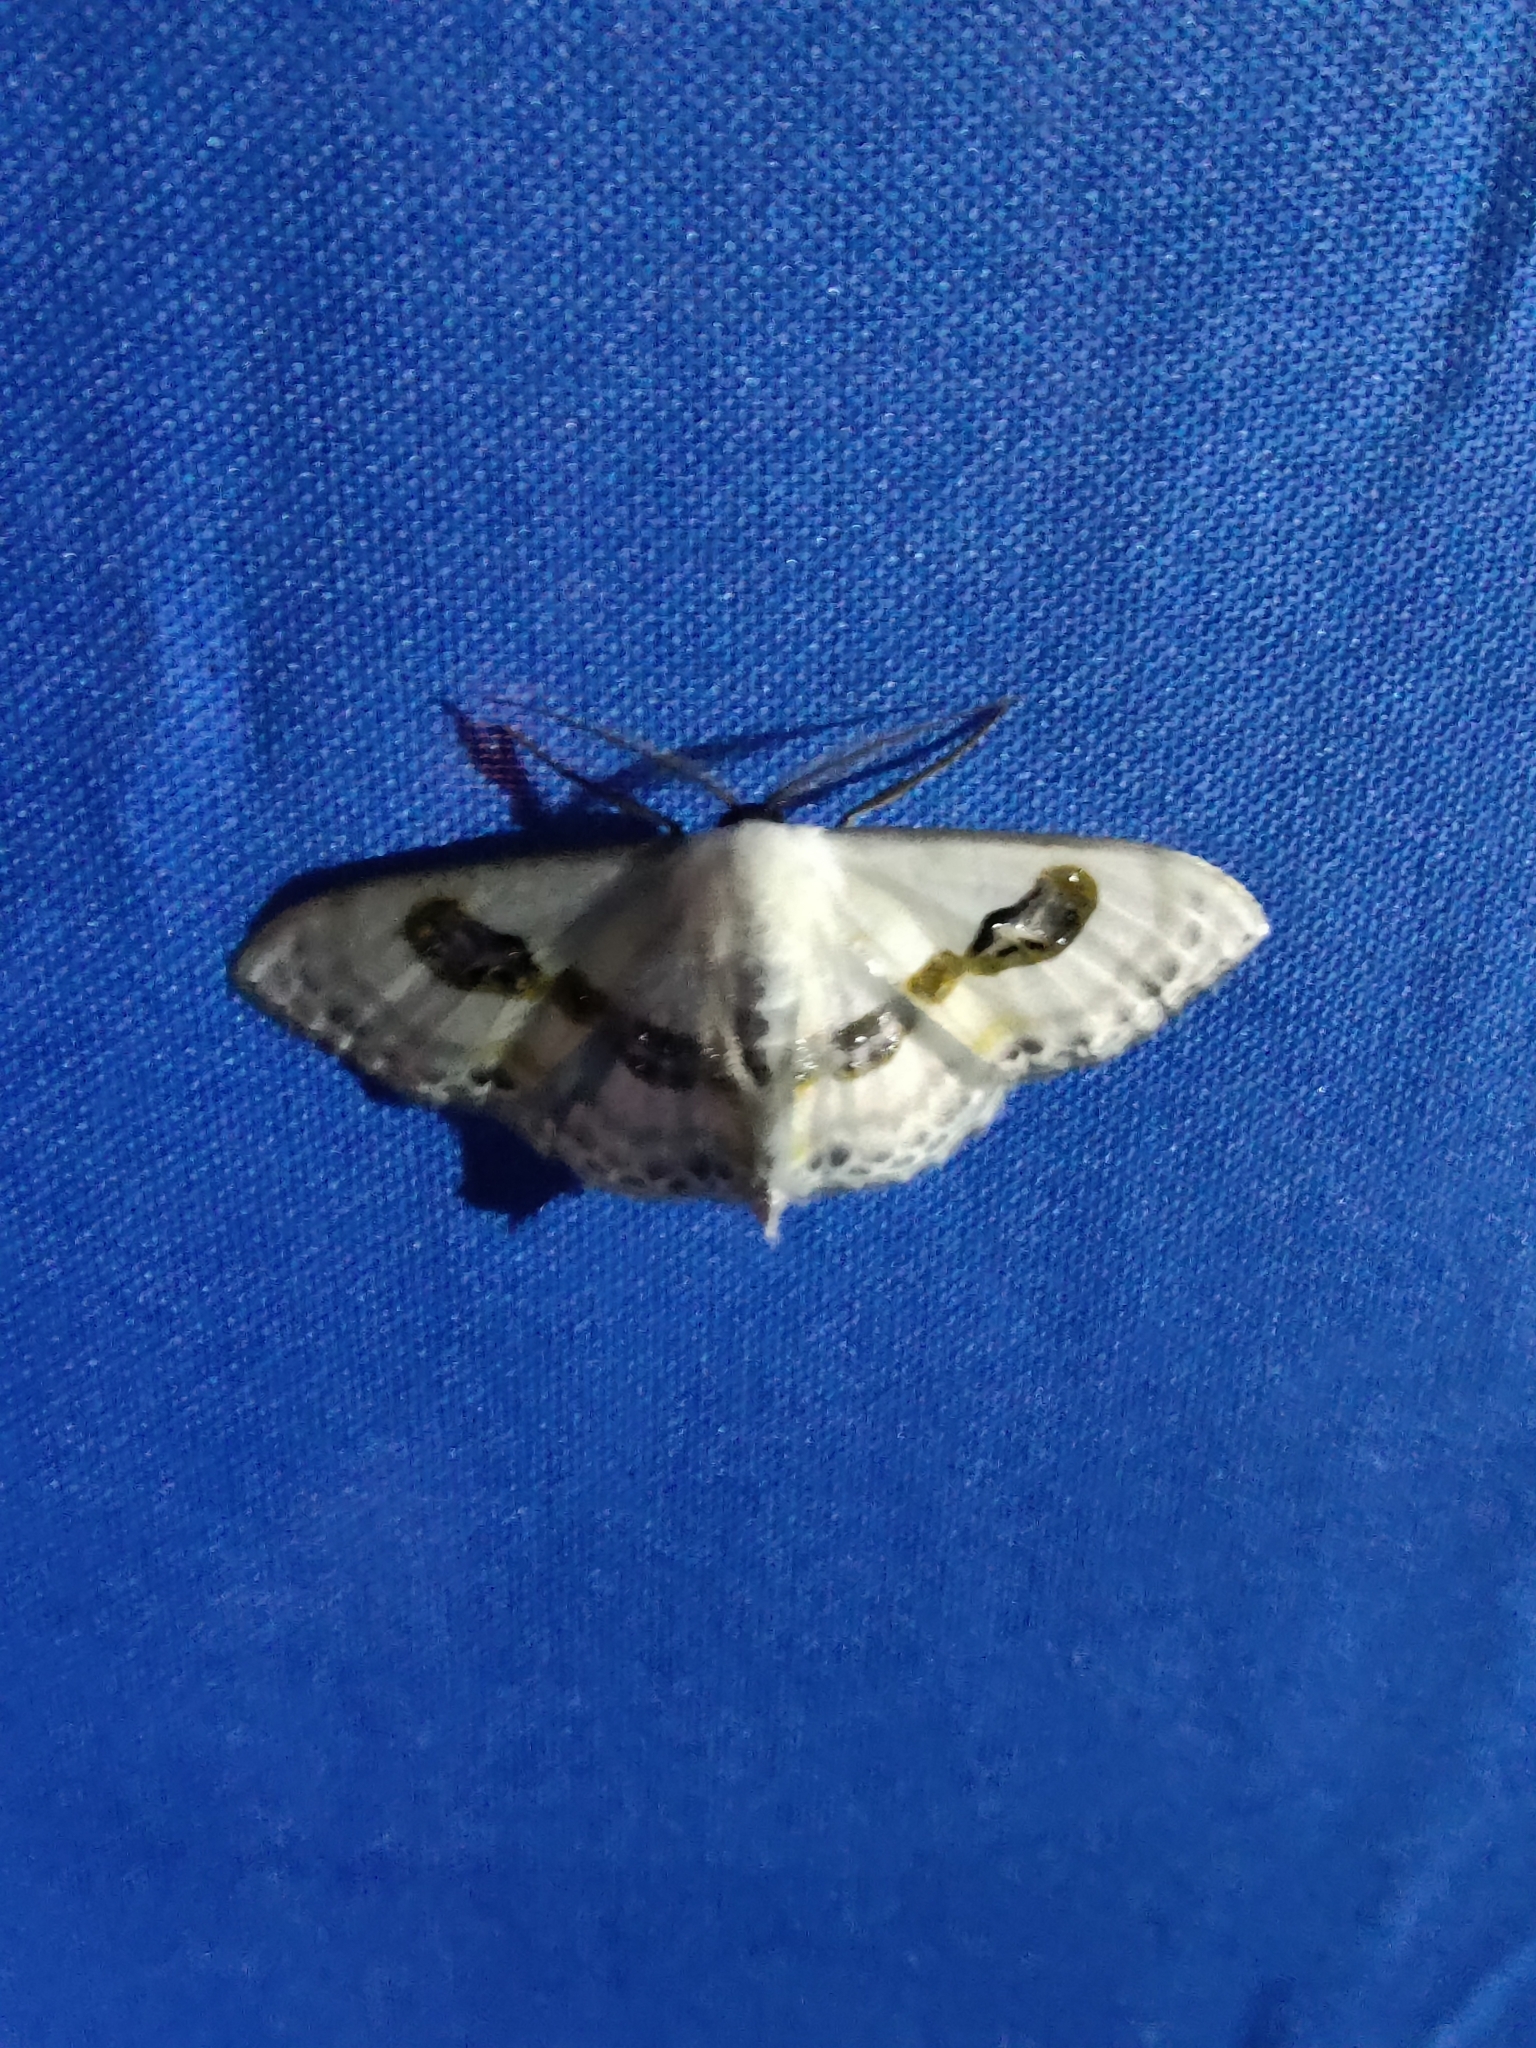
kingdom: Animalia
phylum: Arthropoda
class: Insecta
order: Lepidoptera
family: Geometridae
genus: Problepsis
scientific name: Problepsis vulgaris
